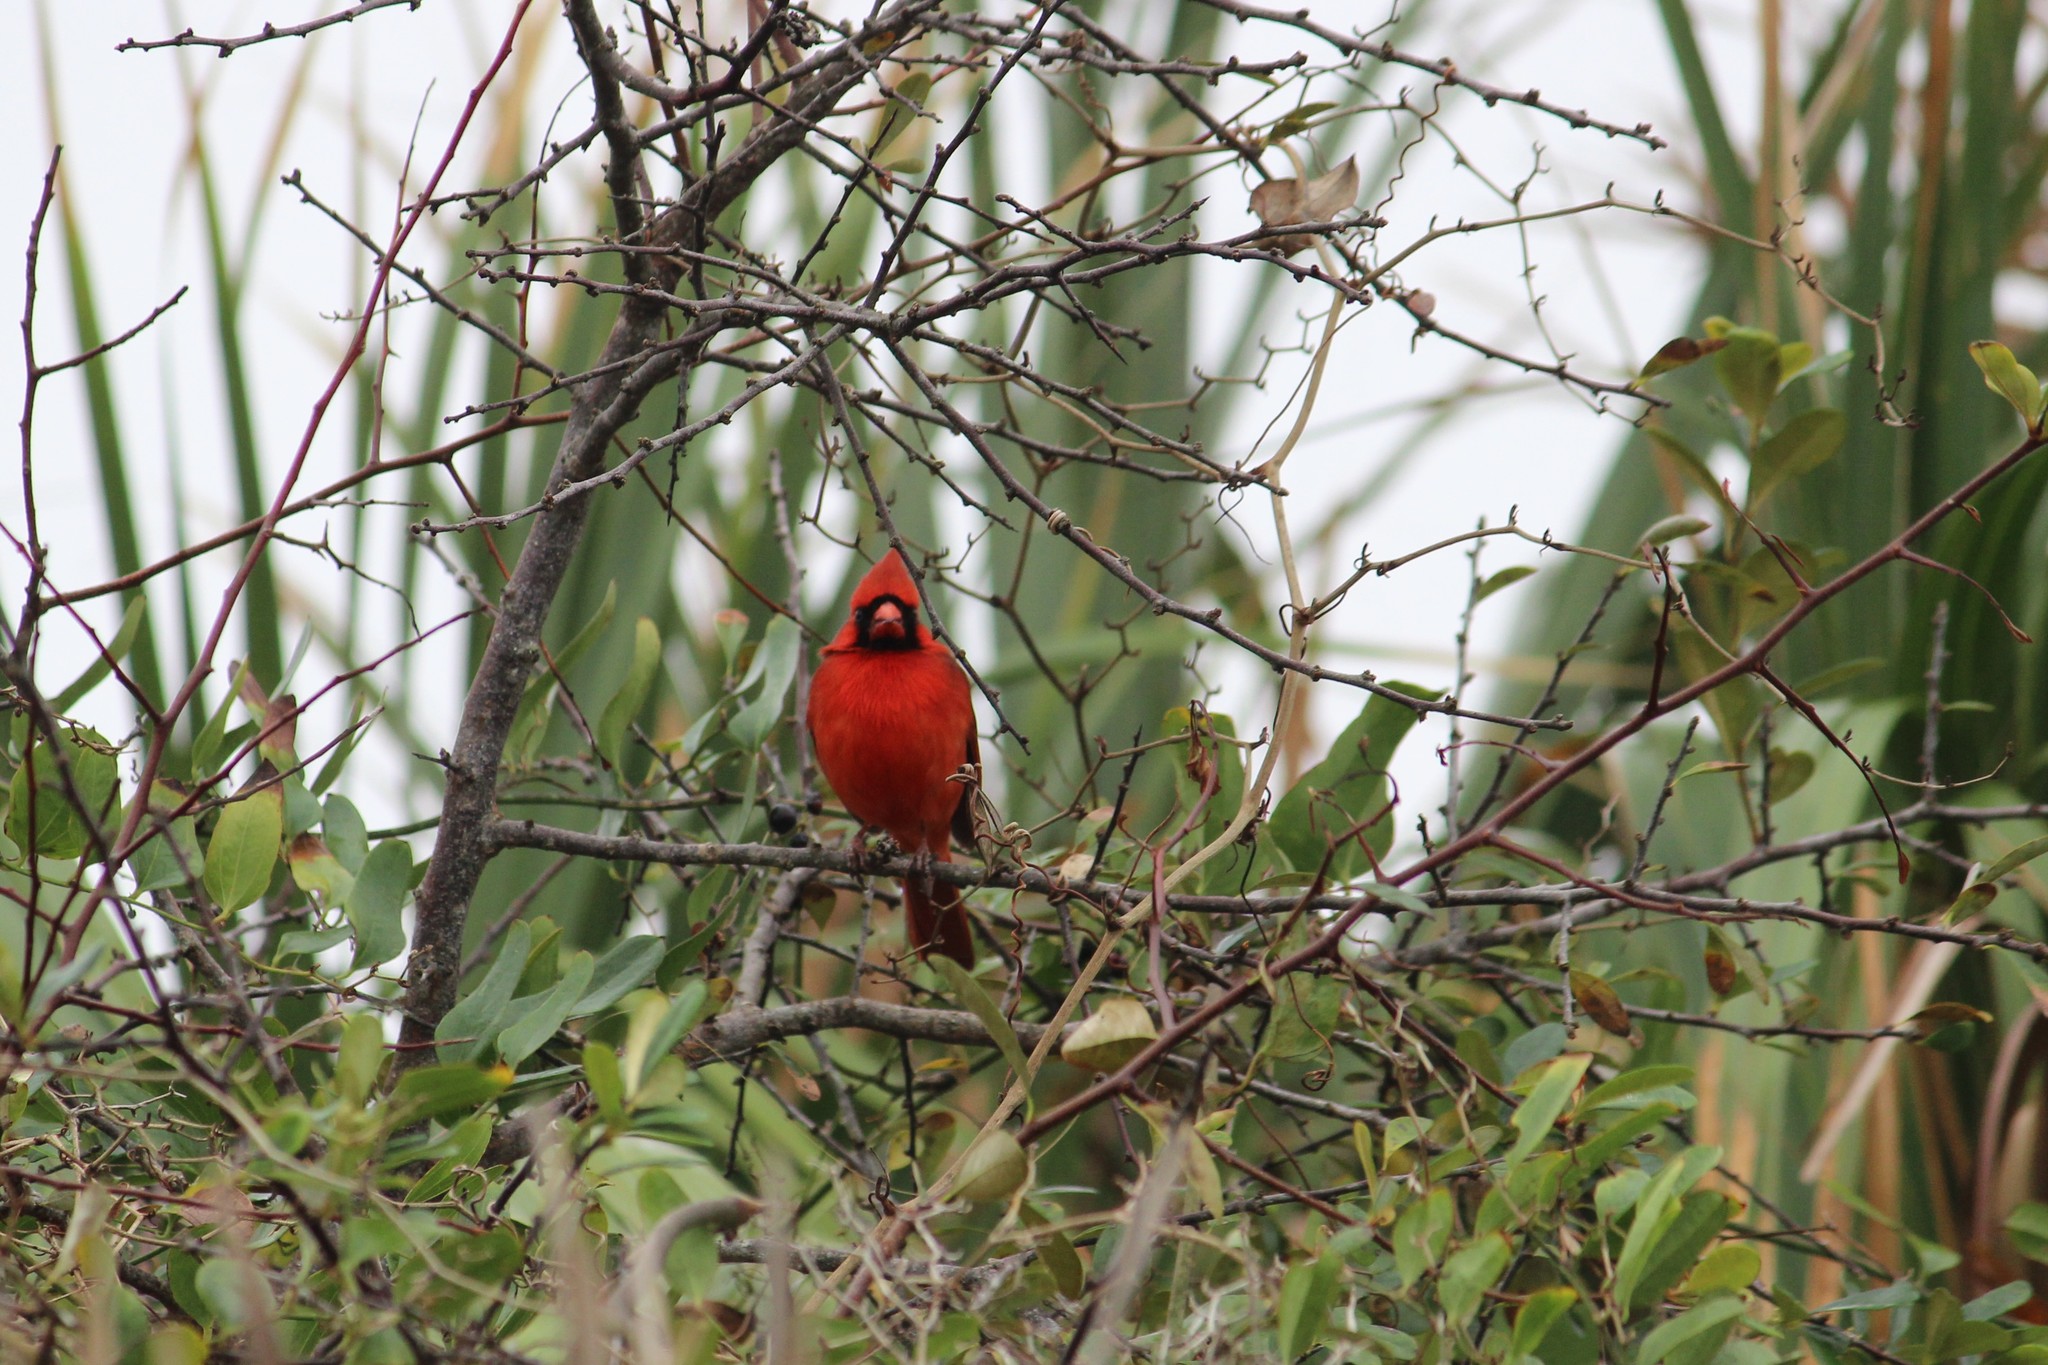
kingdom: Animalia
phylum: Chordata
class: Aves
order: Passeriformes
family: Cardinalidae
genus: Cardinalis
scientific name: Cardinalis cardinalis
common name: Northern cardinal
